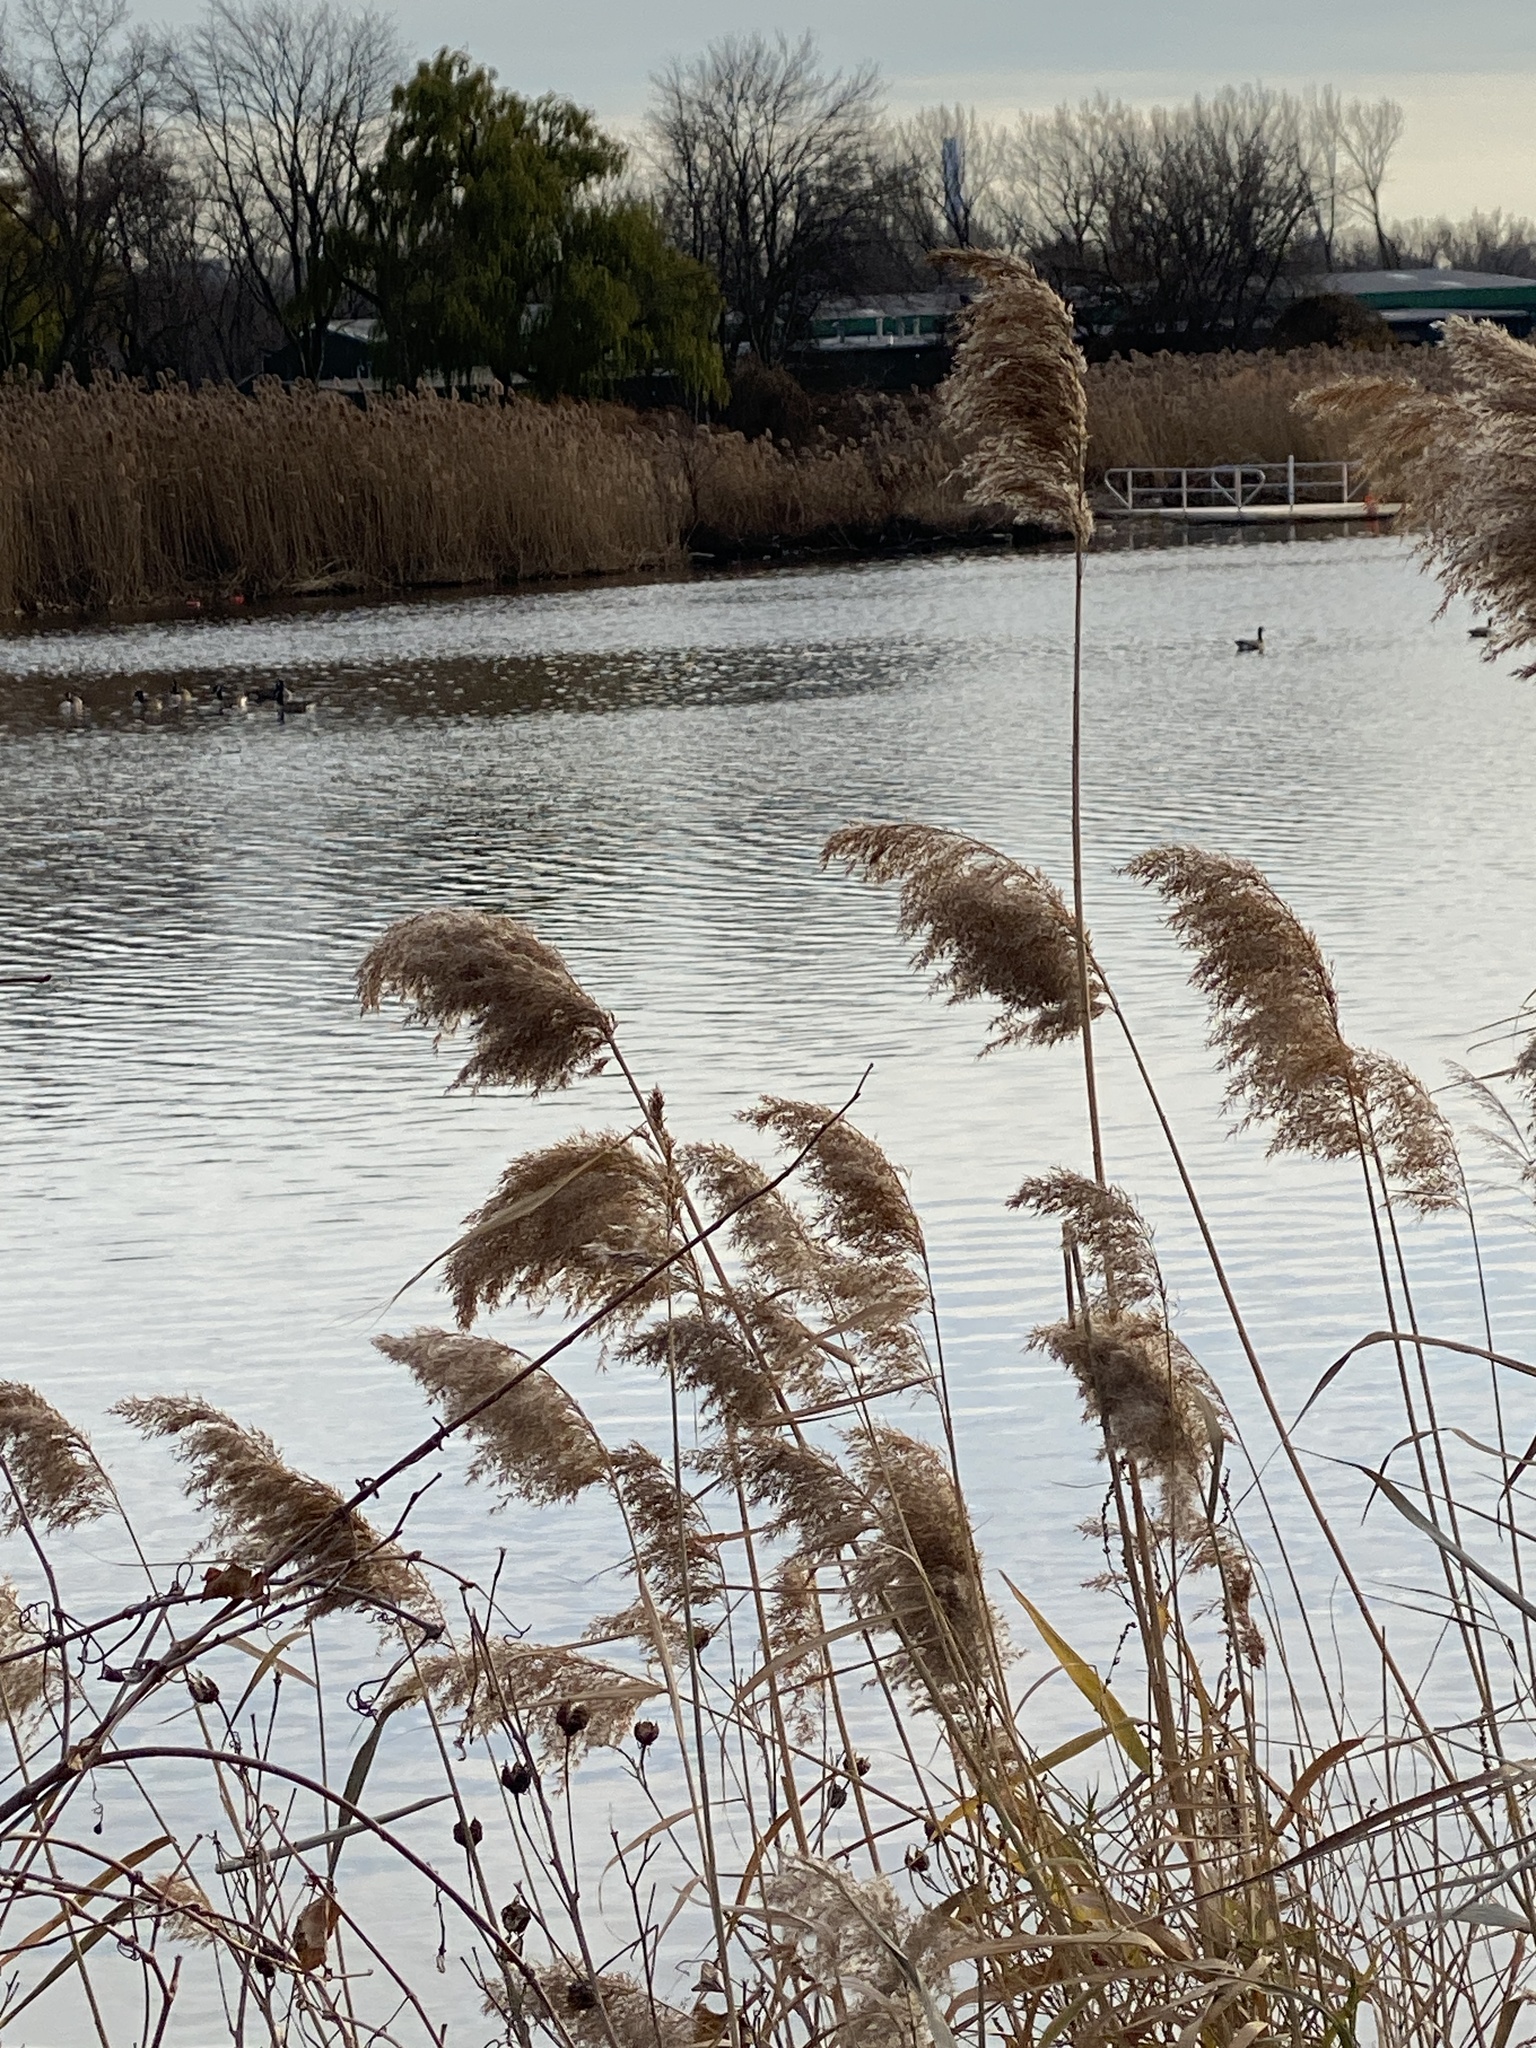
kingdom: Plantae
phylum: Tracheophyta
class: Liliopsida
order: Poales
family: Poaceae
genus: Phragmites
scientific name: Phragmites australis
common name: Common reed
